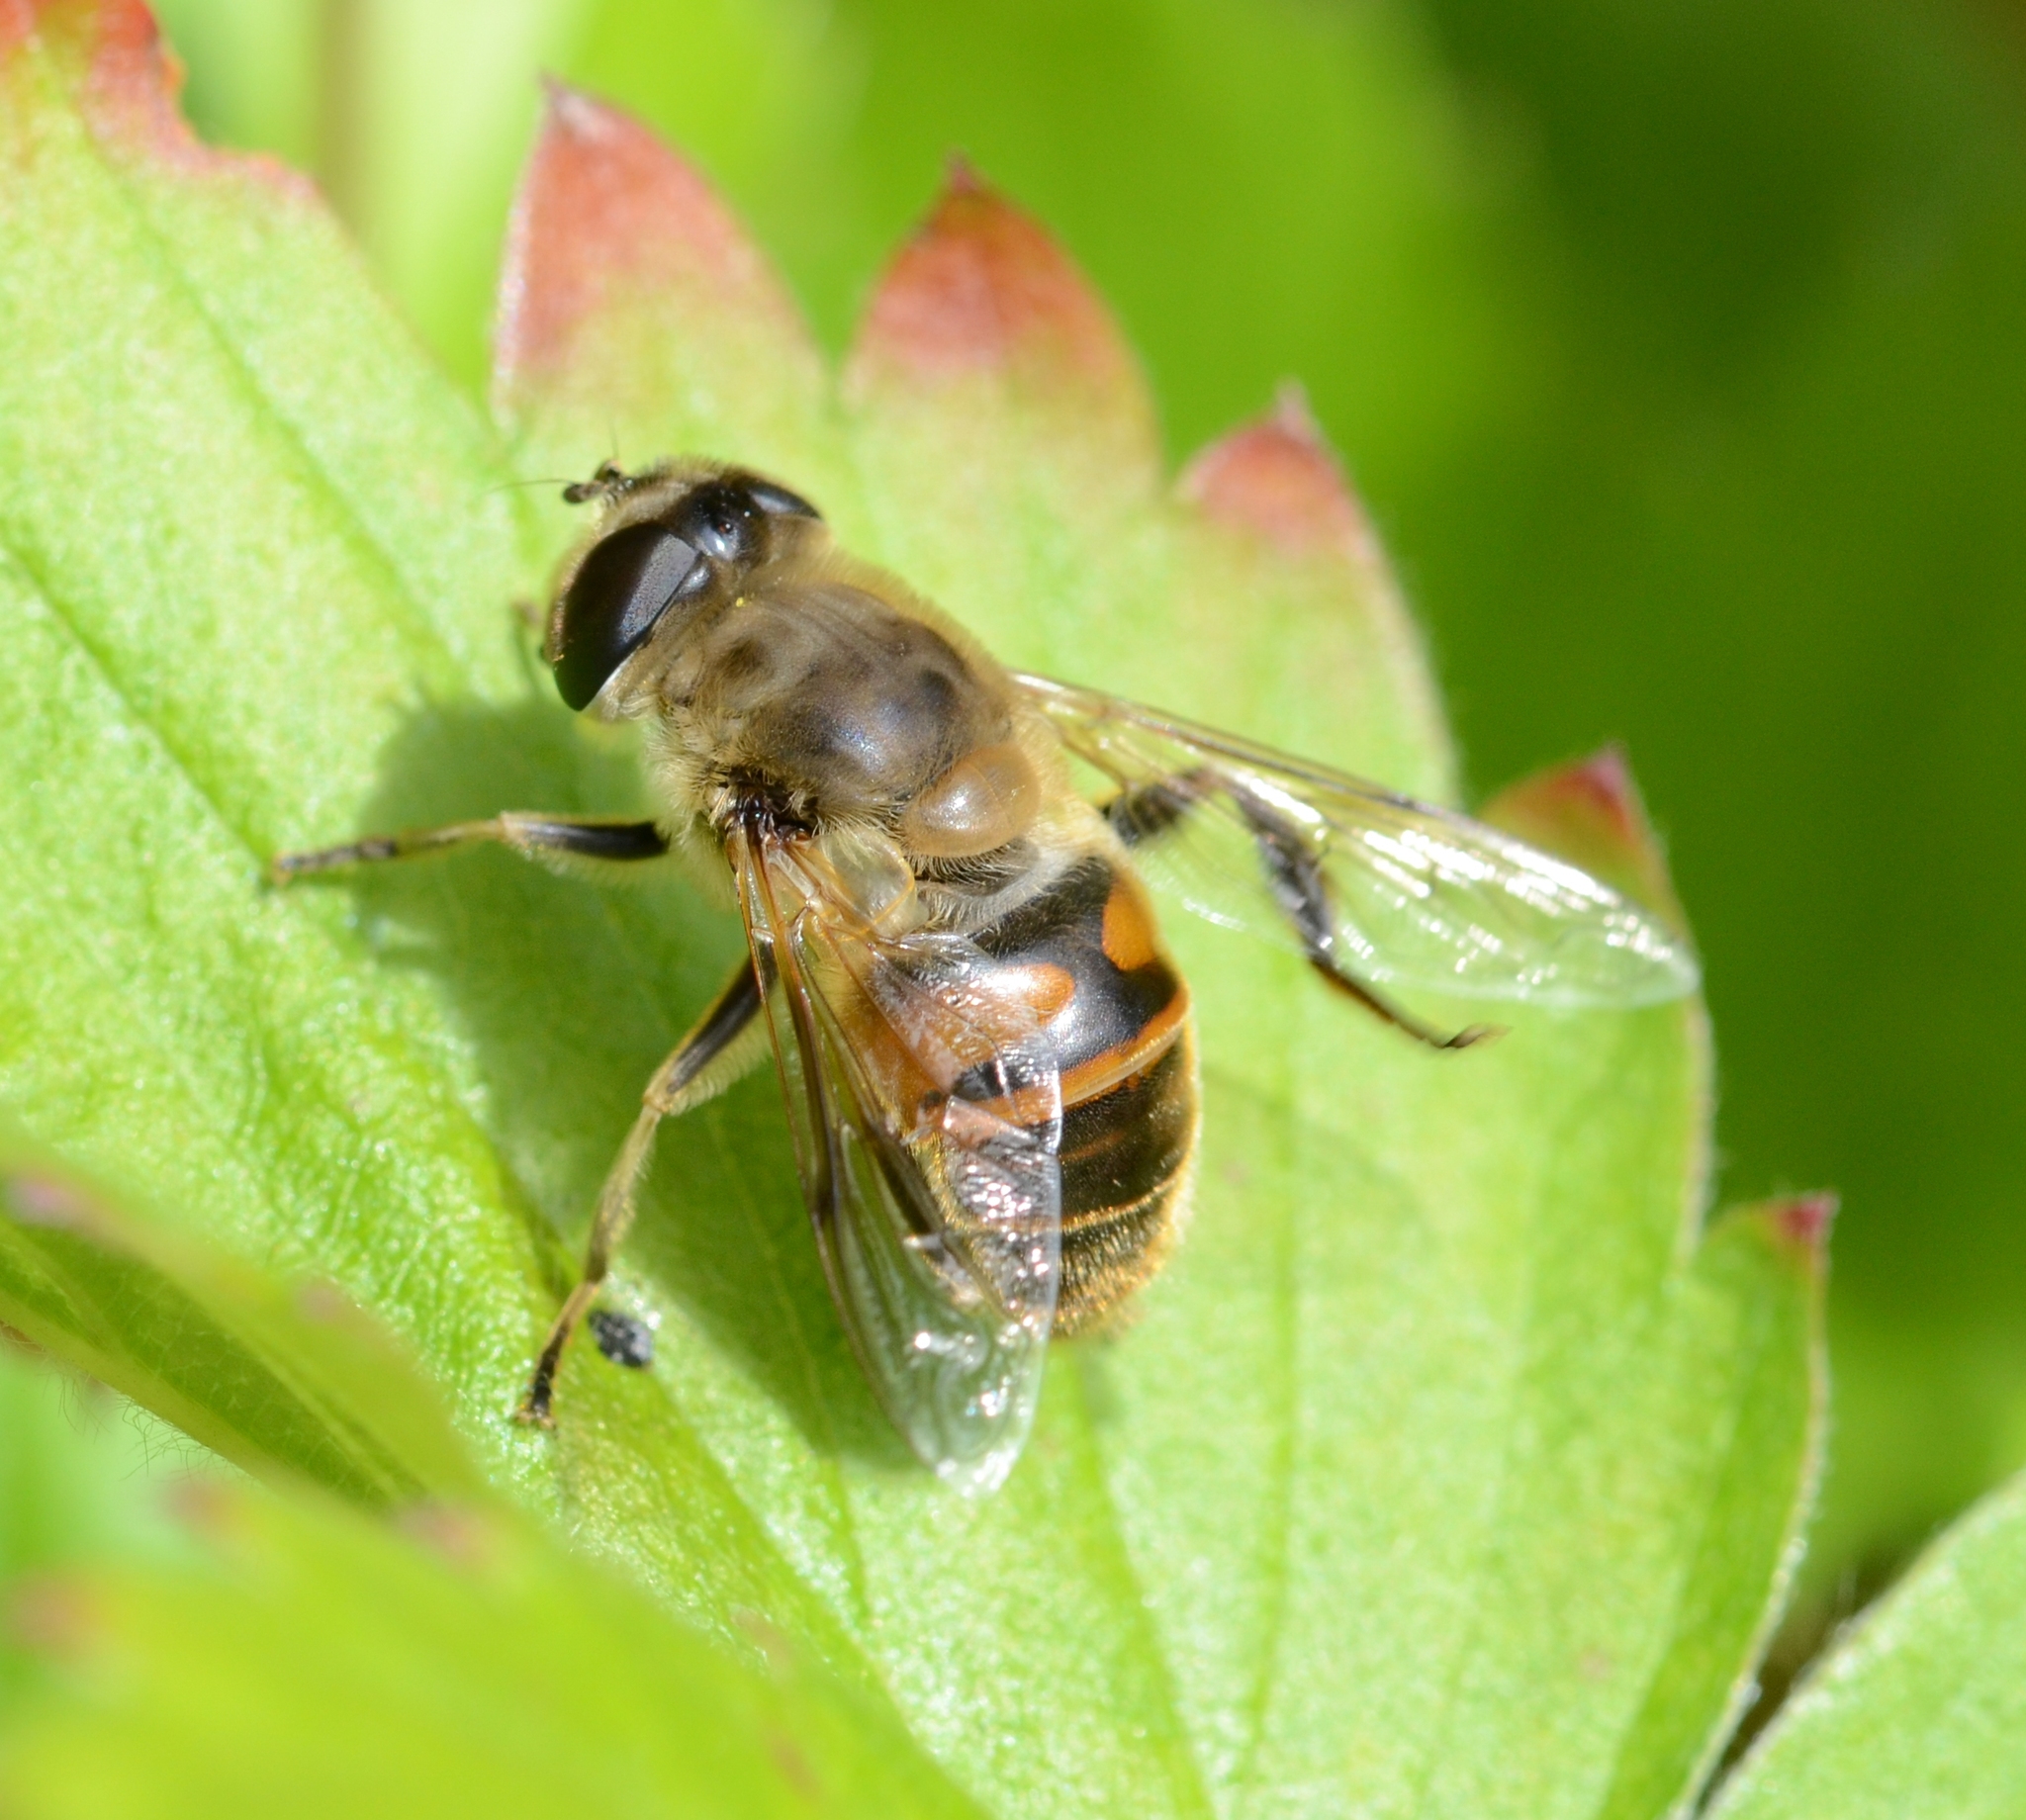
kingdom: Animalia
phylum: Arthropoda
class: Insecta
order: Diptera
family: Syrphidae
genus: Eristalis
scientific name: Eristalis tenax
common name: Drone fly
